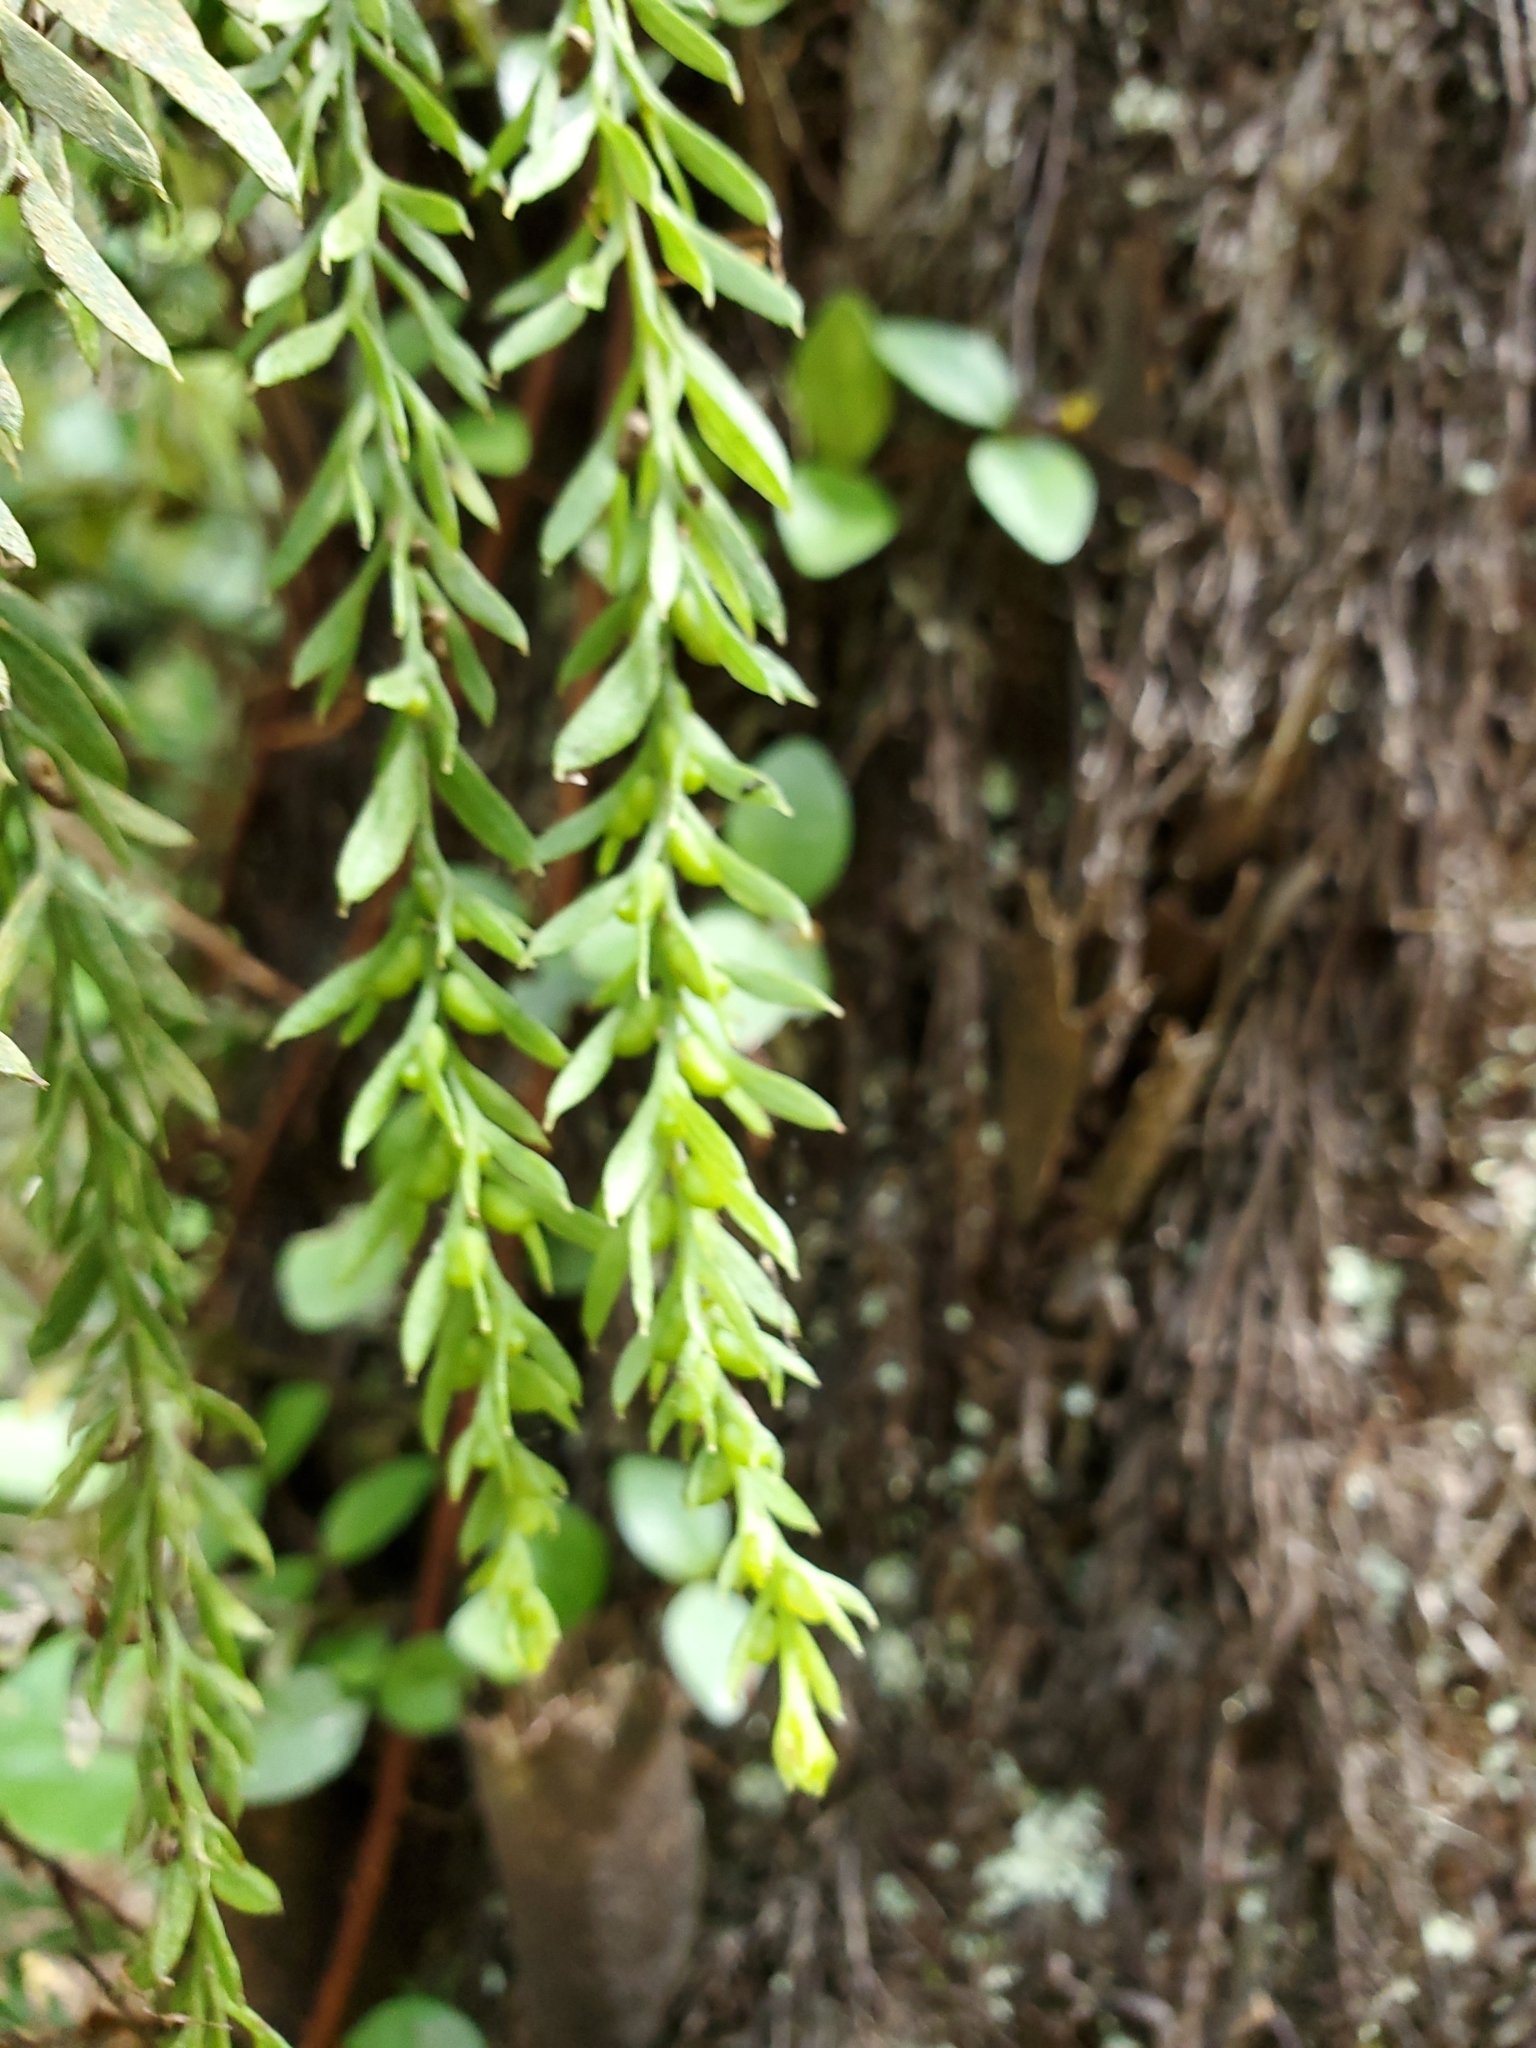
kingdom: Plantae
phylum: Tracheophyta
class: Polypodiopsida
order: Psilotales
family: Psilotaceae
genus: Tmesipteris
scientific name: Tmesipteris elongata
